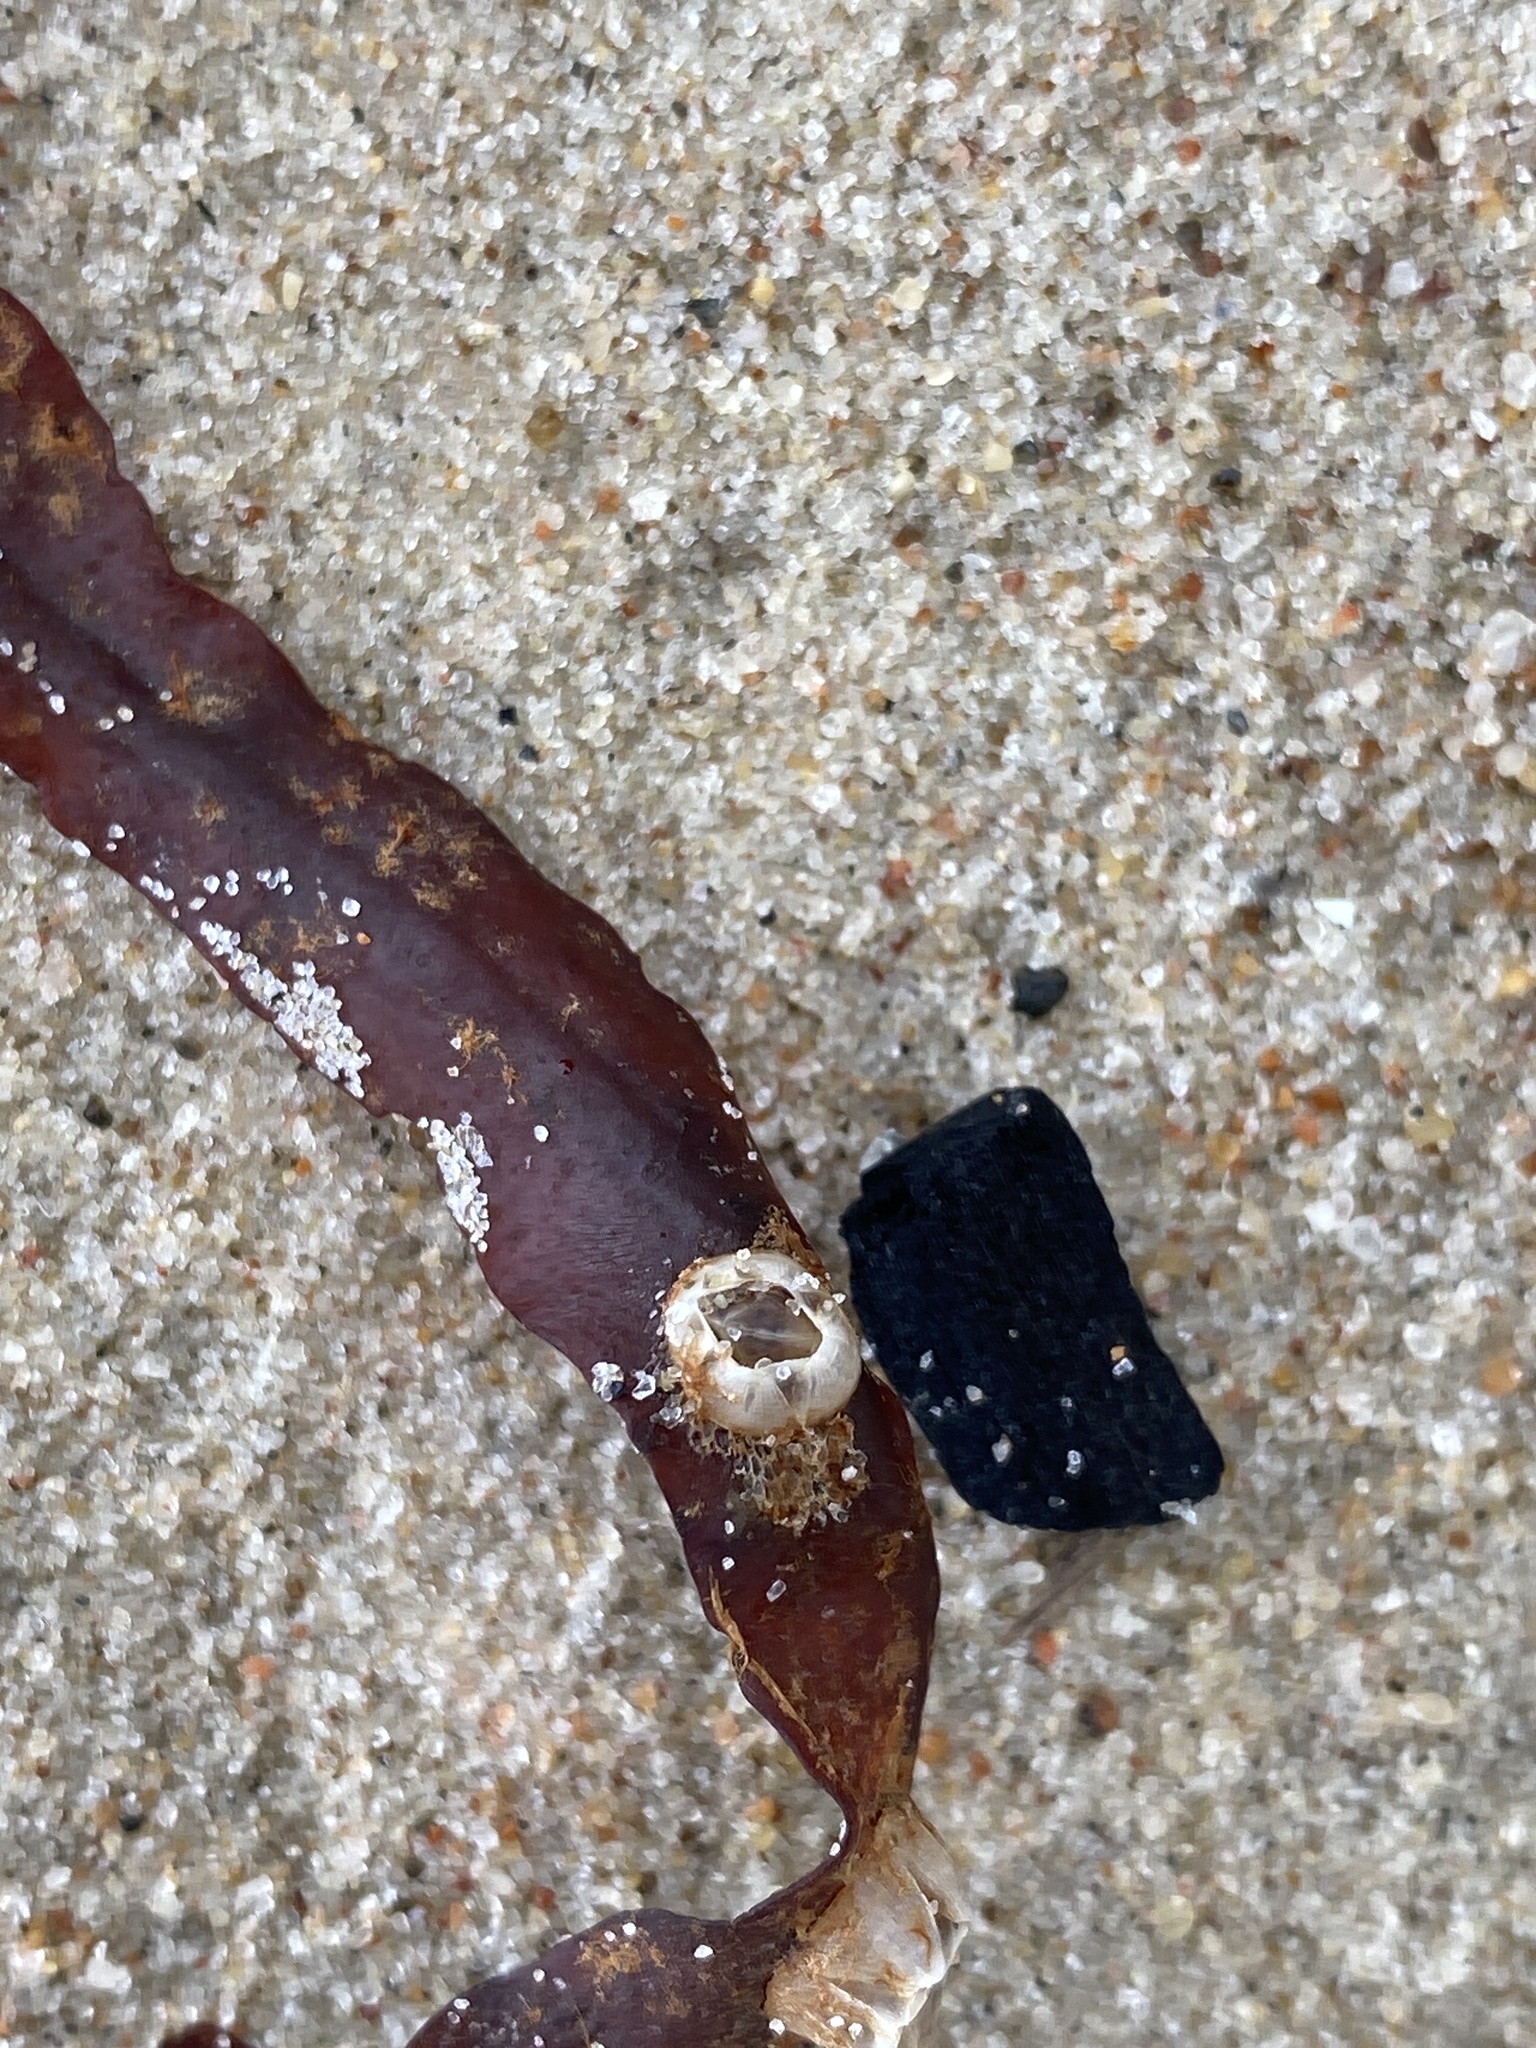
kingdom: Animalia
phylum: Arthropoda
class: Maxillopoda
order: Sessilia
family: Balanidae
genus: Amphibalanus
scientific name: Amphibalanus improvisus
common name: Bay barnacle
